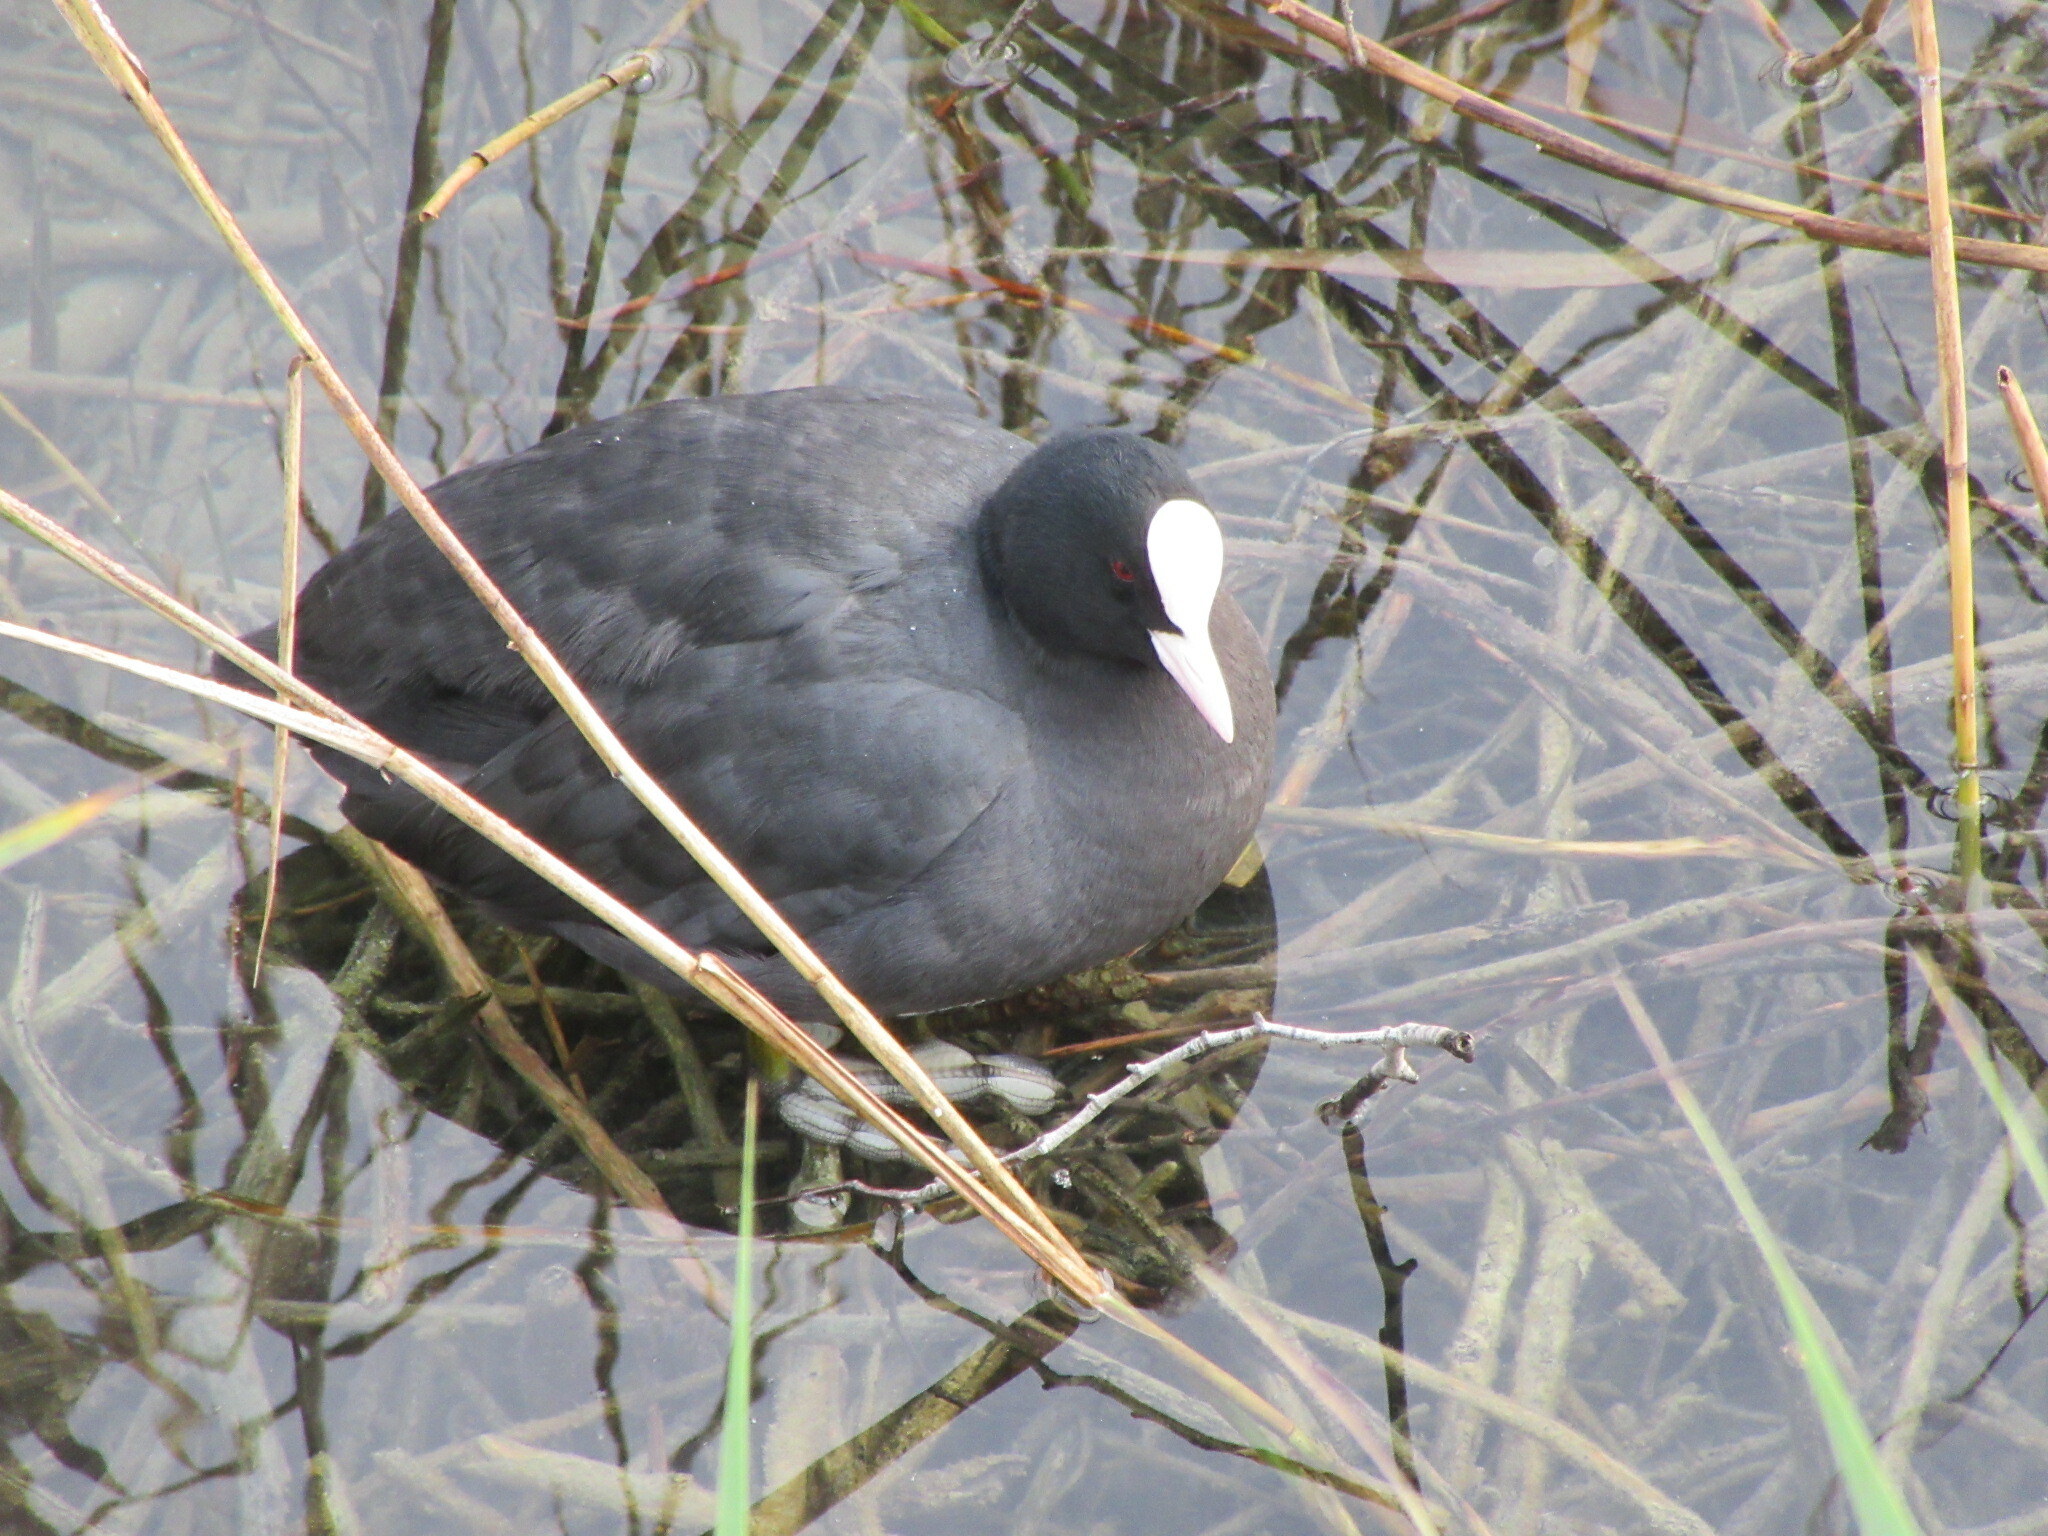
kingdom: Animalia
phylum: Chordata
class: Aves
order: Gruiformes
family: Rallidae
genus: Fulica
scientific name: Fulica atra
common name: Eurasian coot
